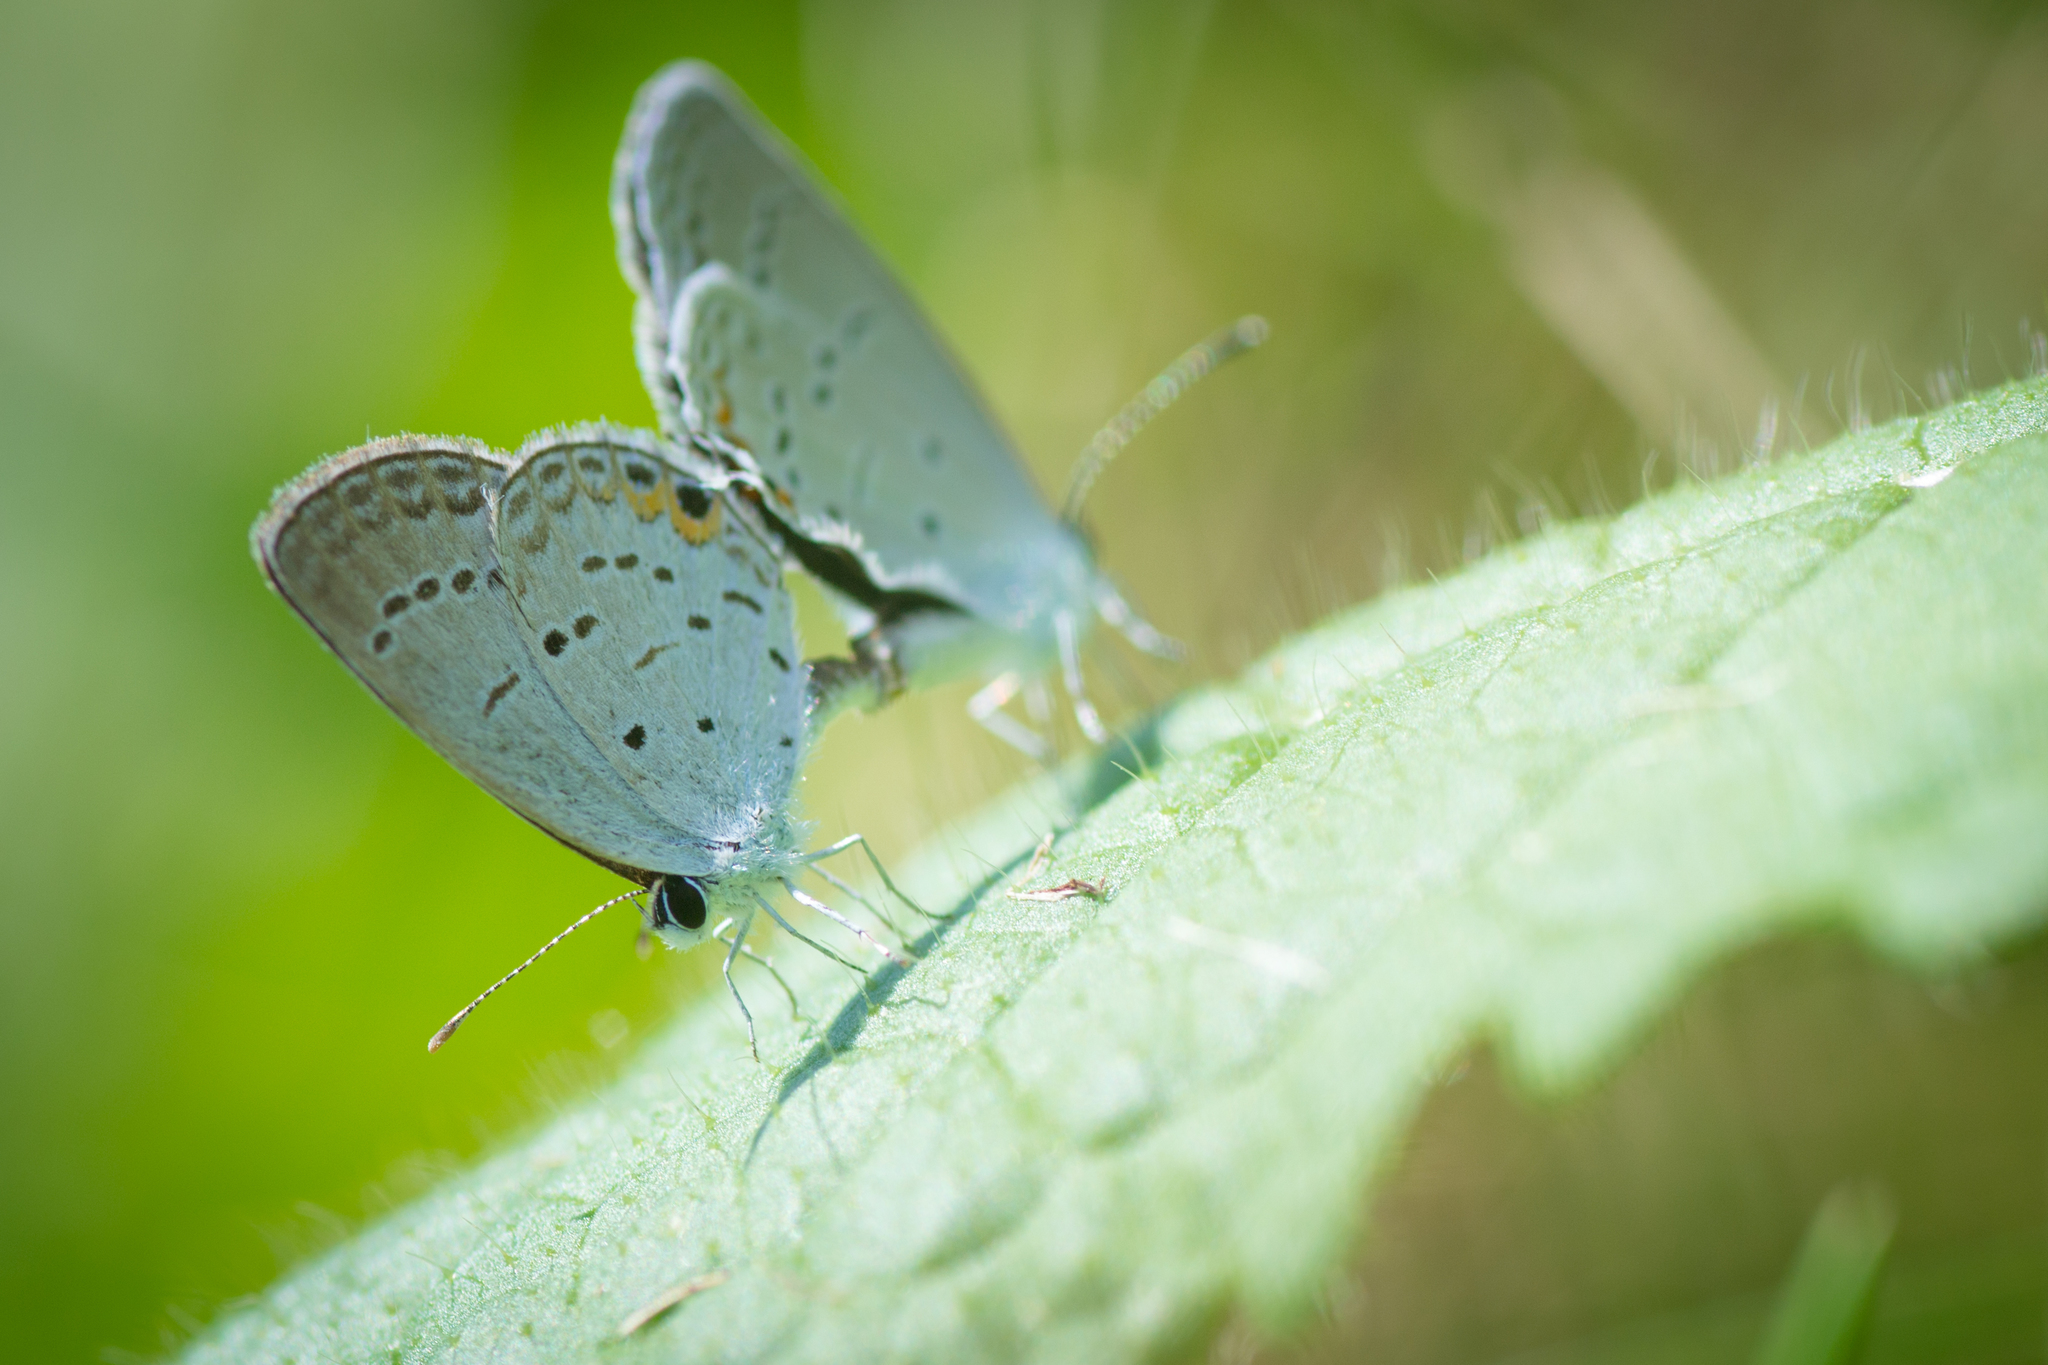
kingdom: Animalia
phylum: Arthropoda
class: Insecta
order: Lepidoptera
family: Lycaenidae
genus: Elkalyce
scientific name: Elkalyce comyntas
